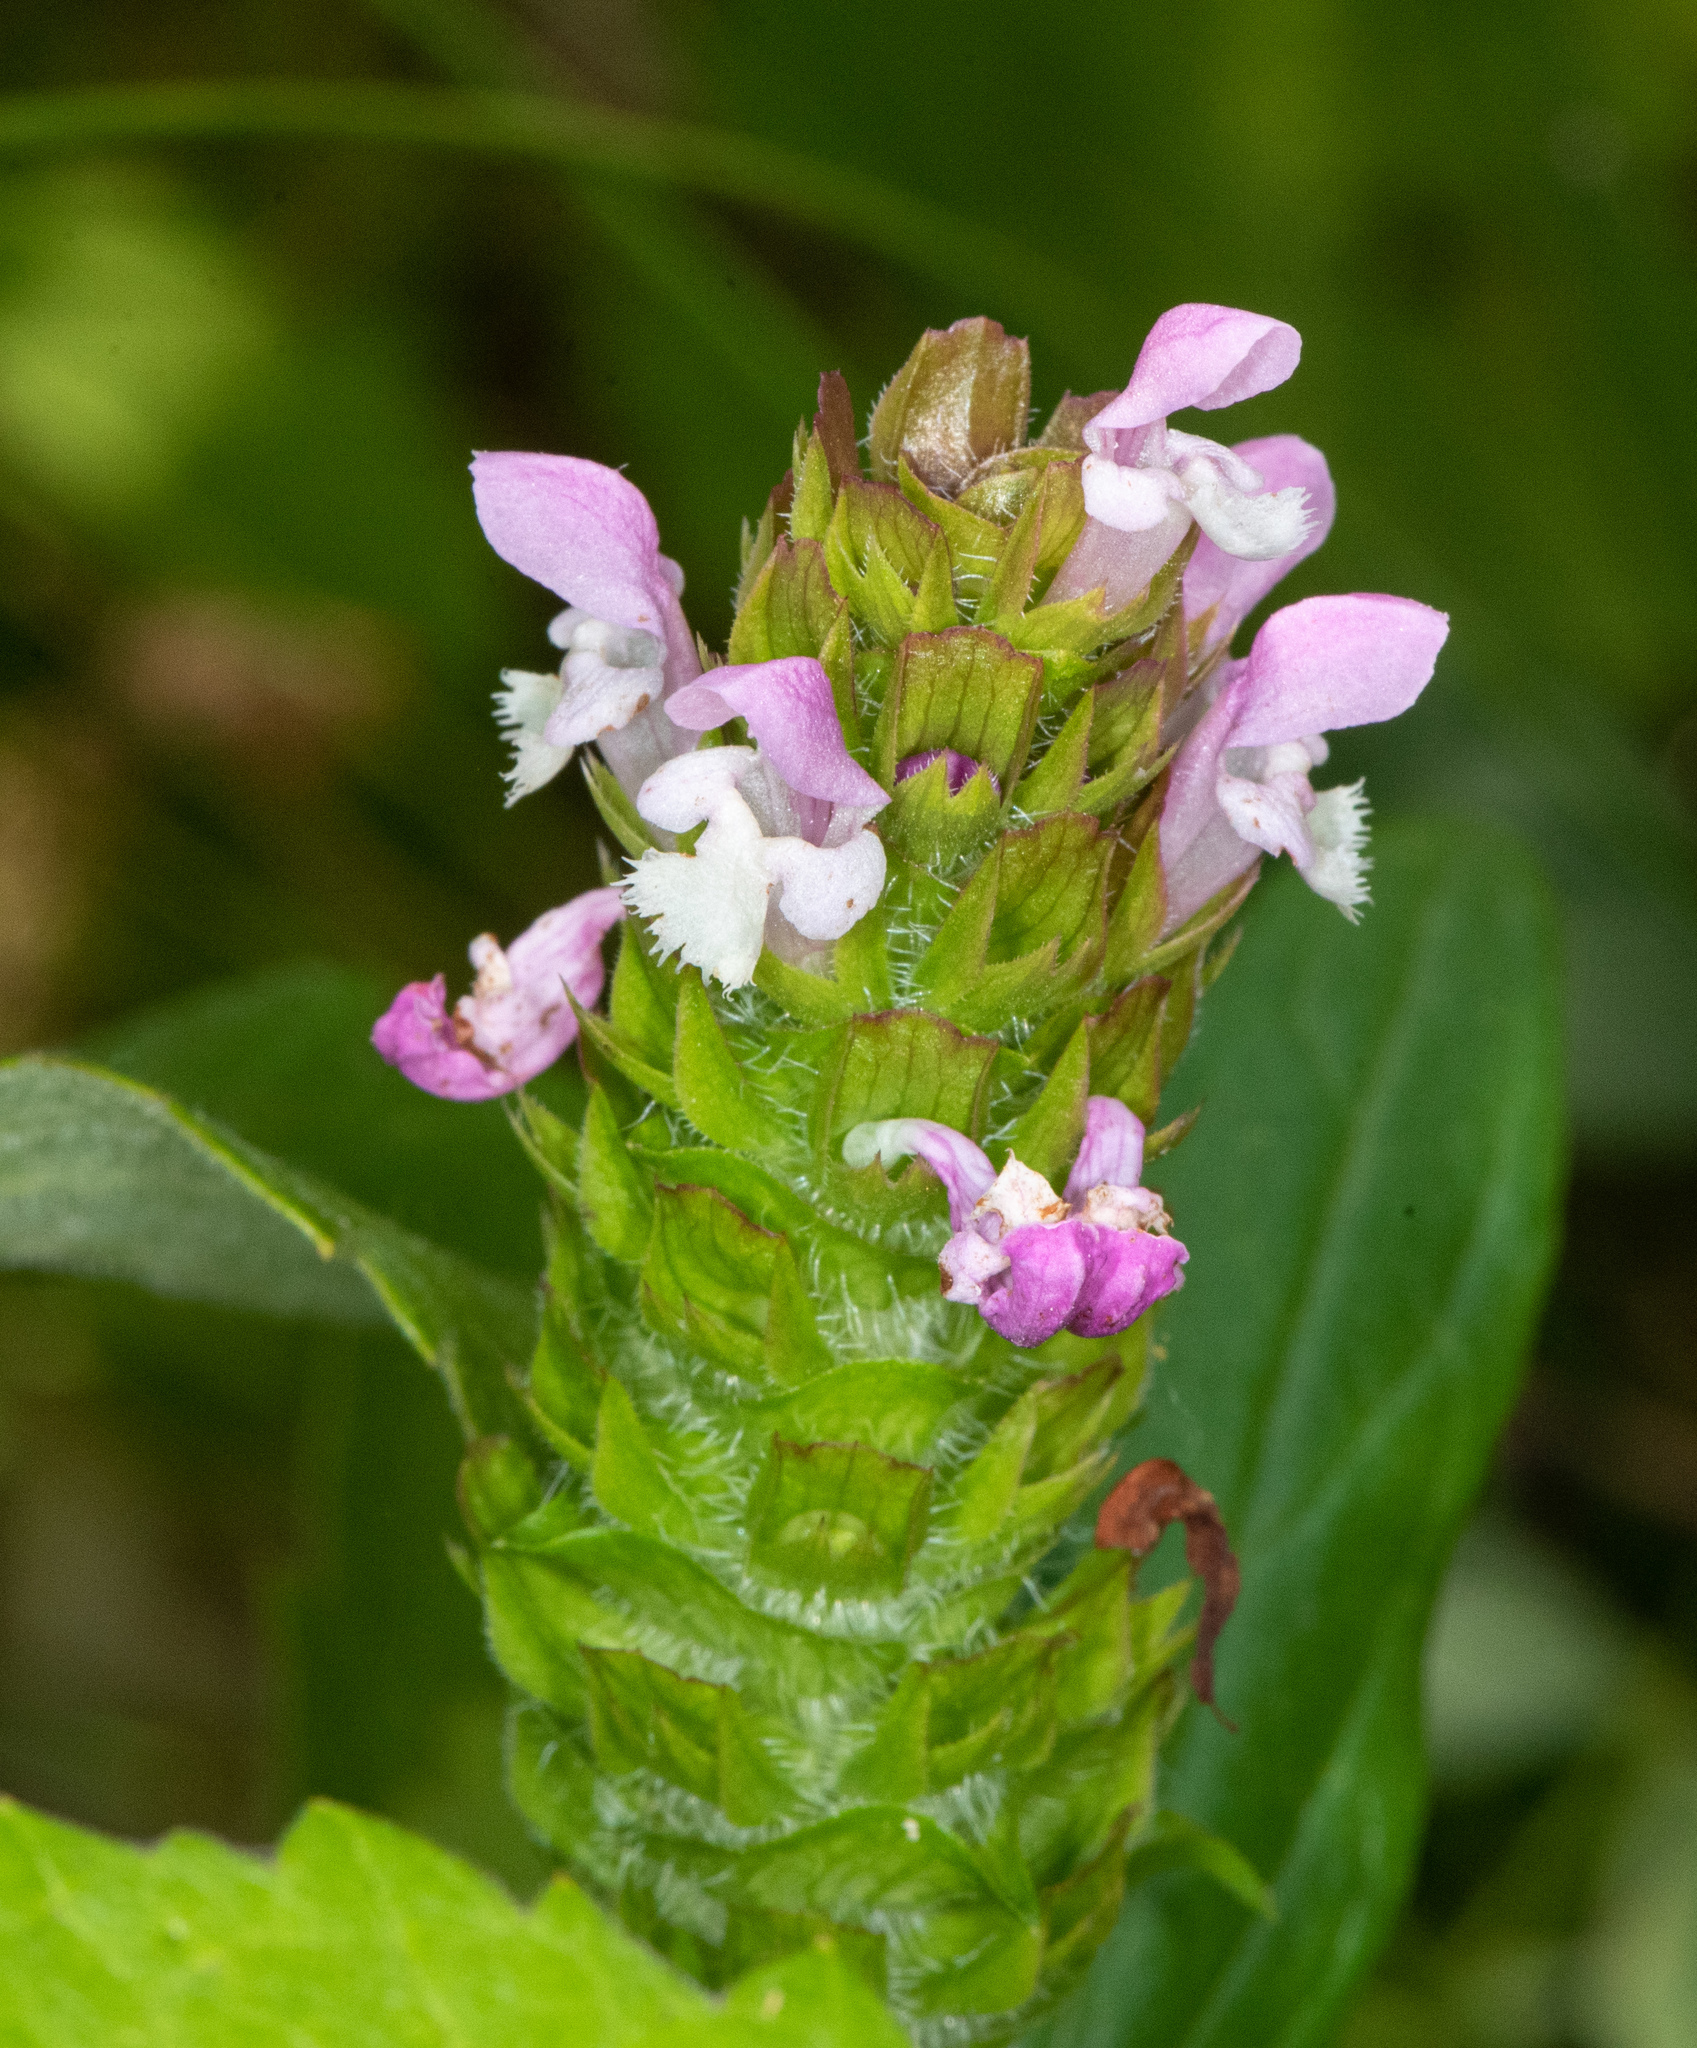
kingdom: Plantae
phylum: Tracheophyta
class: Magnoliopsida
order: Lamiales
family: Lamiaceae
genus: Prunella
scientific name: Prunella vulgaris
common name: Heal-all
